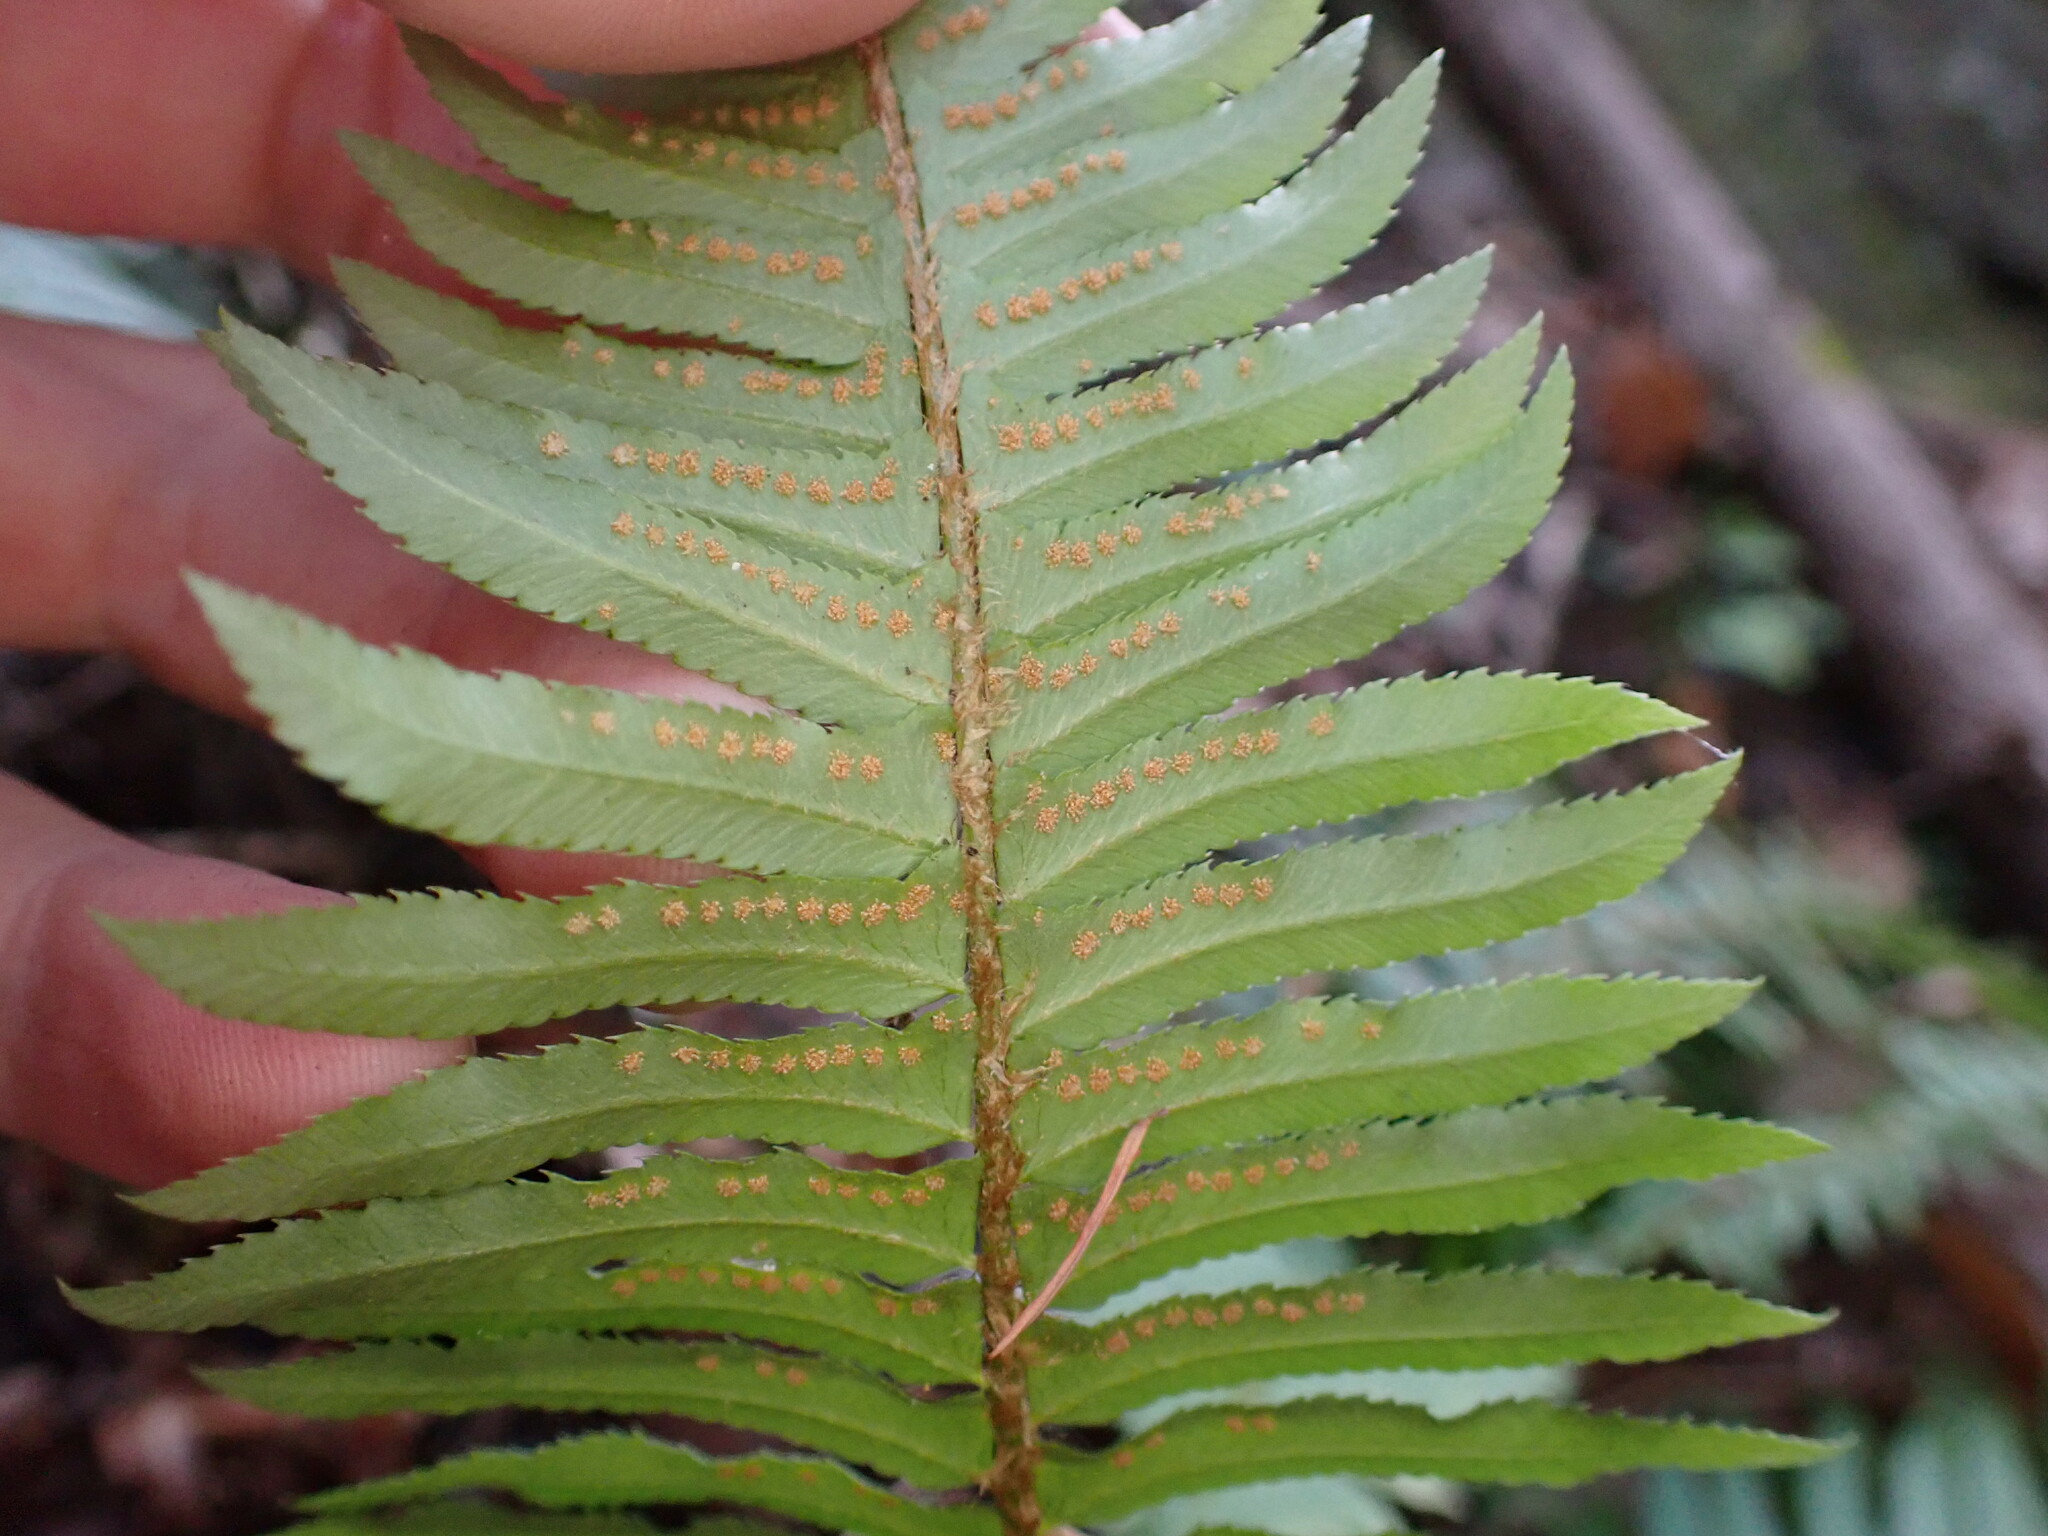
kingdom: Plantae
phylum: Tracheophyta
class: Polypodiopsida
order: Polypodiales
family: Dryopteridaceae
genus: Polystichum
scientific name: Polystichum munitum
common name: Western sword-fern
